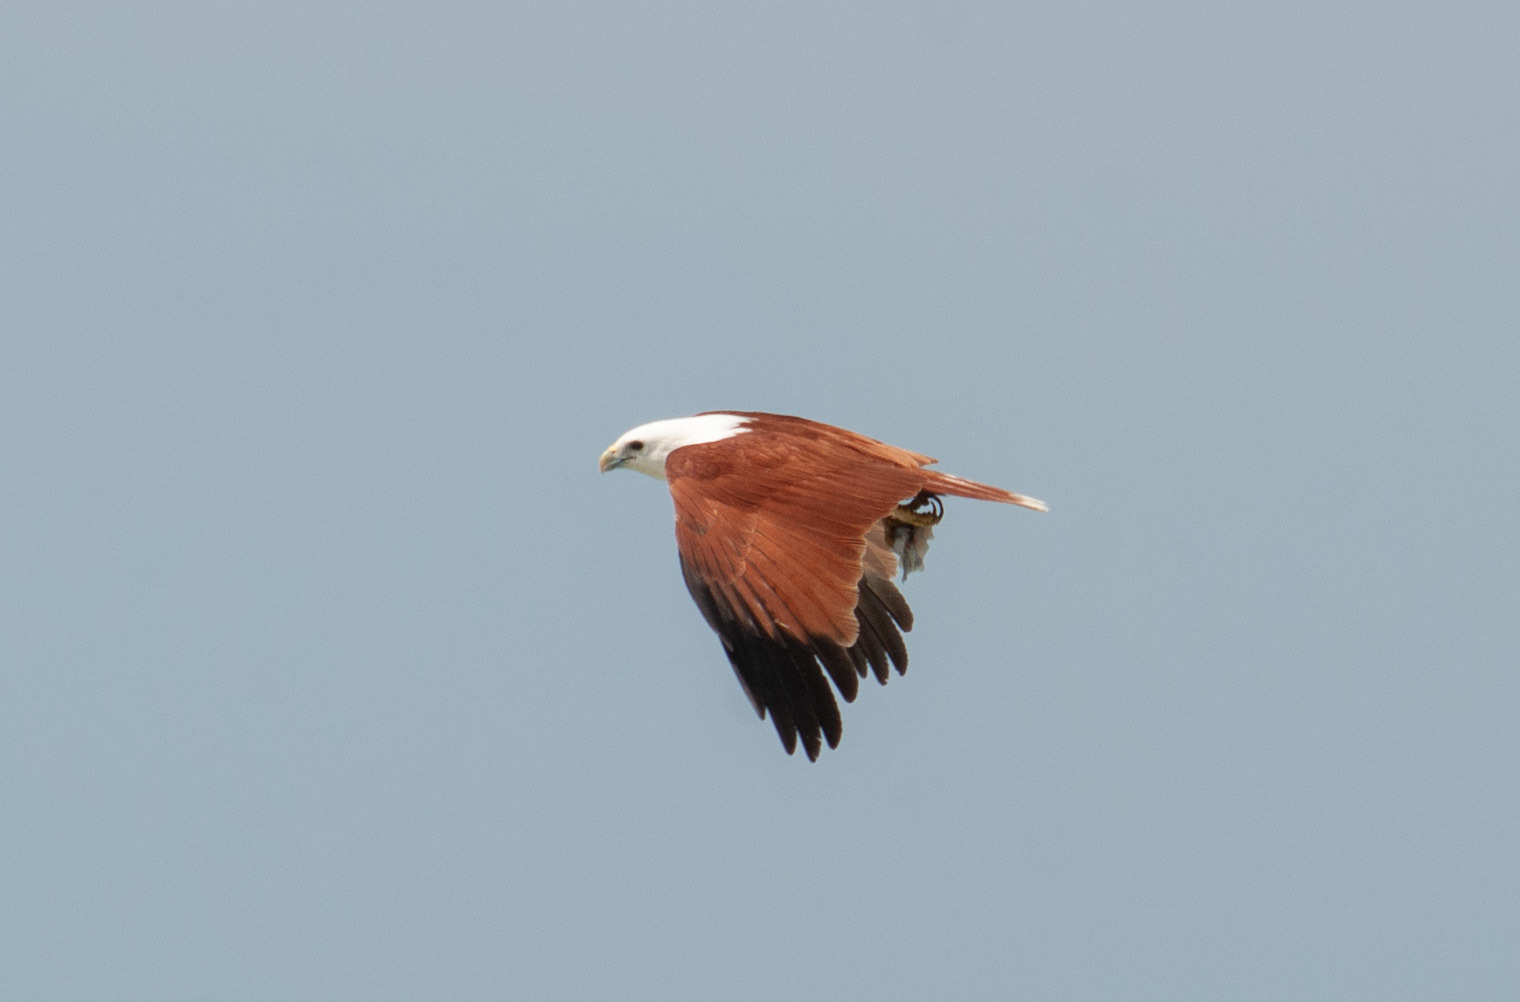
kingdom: Animalia
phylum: Chordata
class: Aves
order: Accipitriformes
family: Accipitridae
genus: Haliastur
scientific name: Haliastur indus
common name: Brahminy kite
